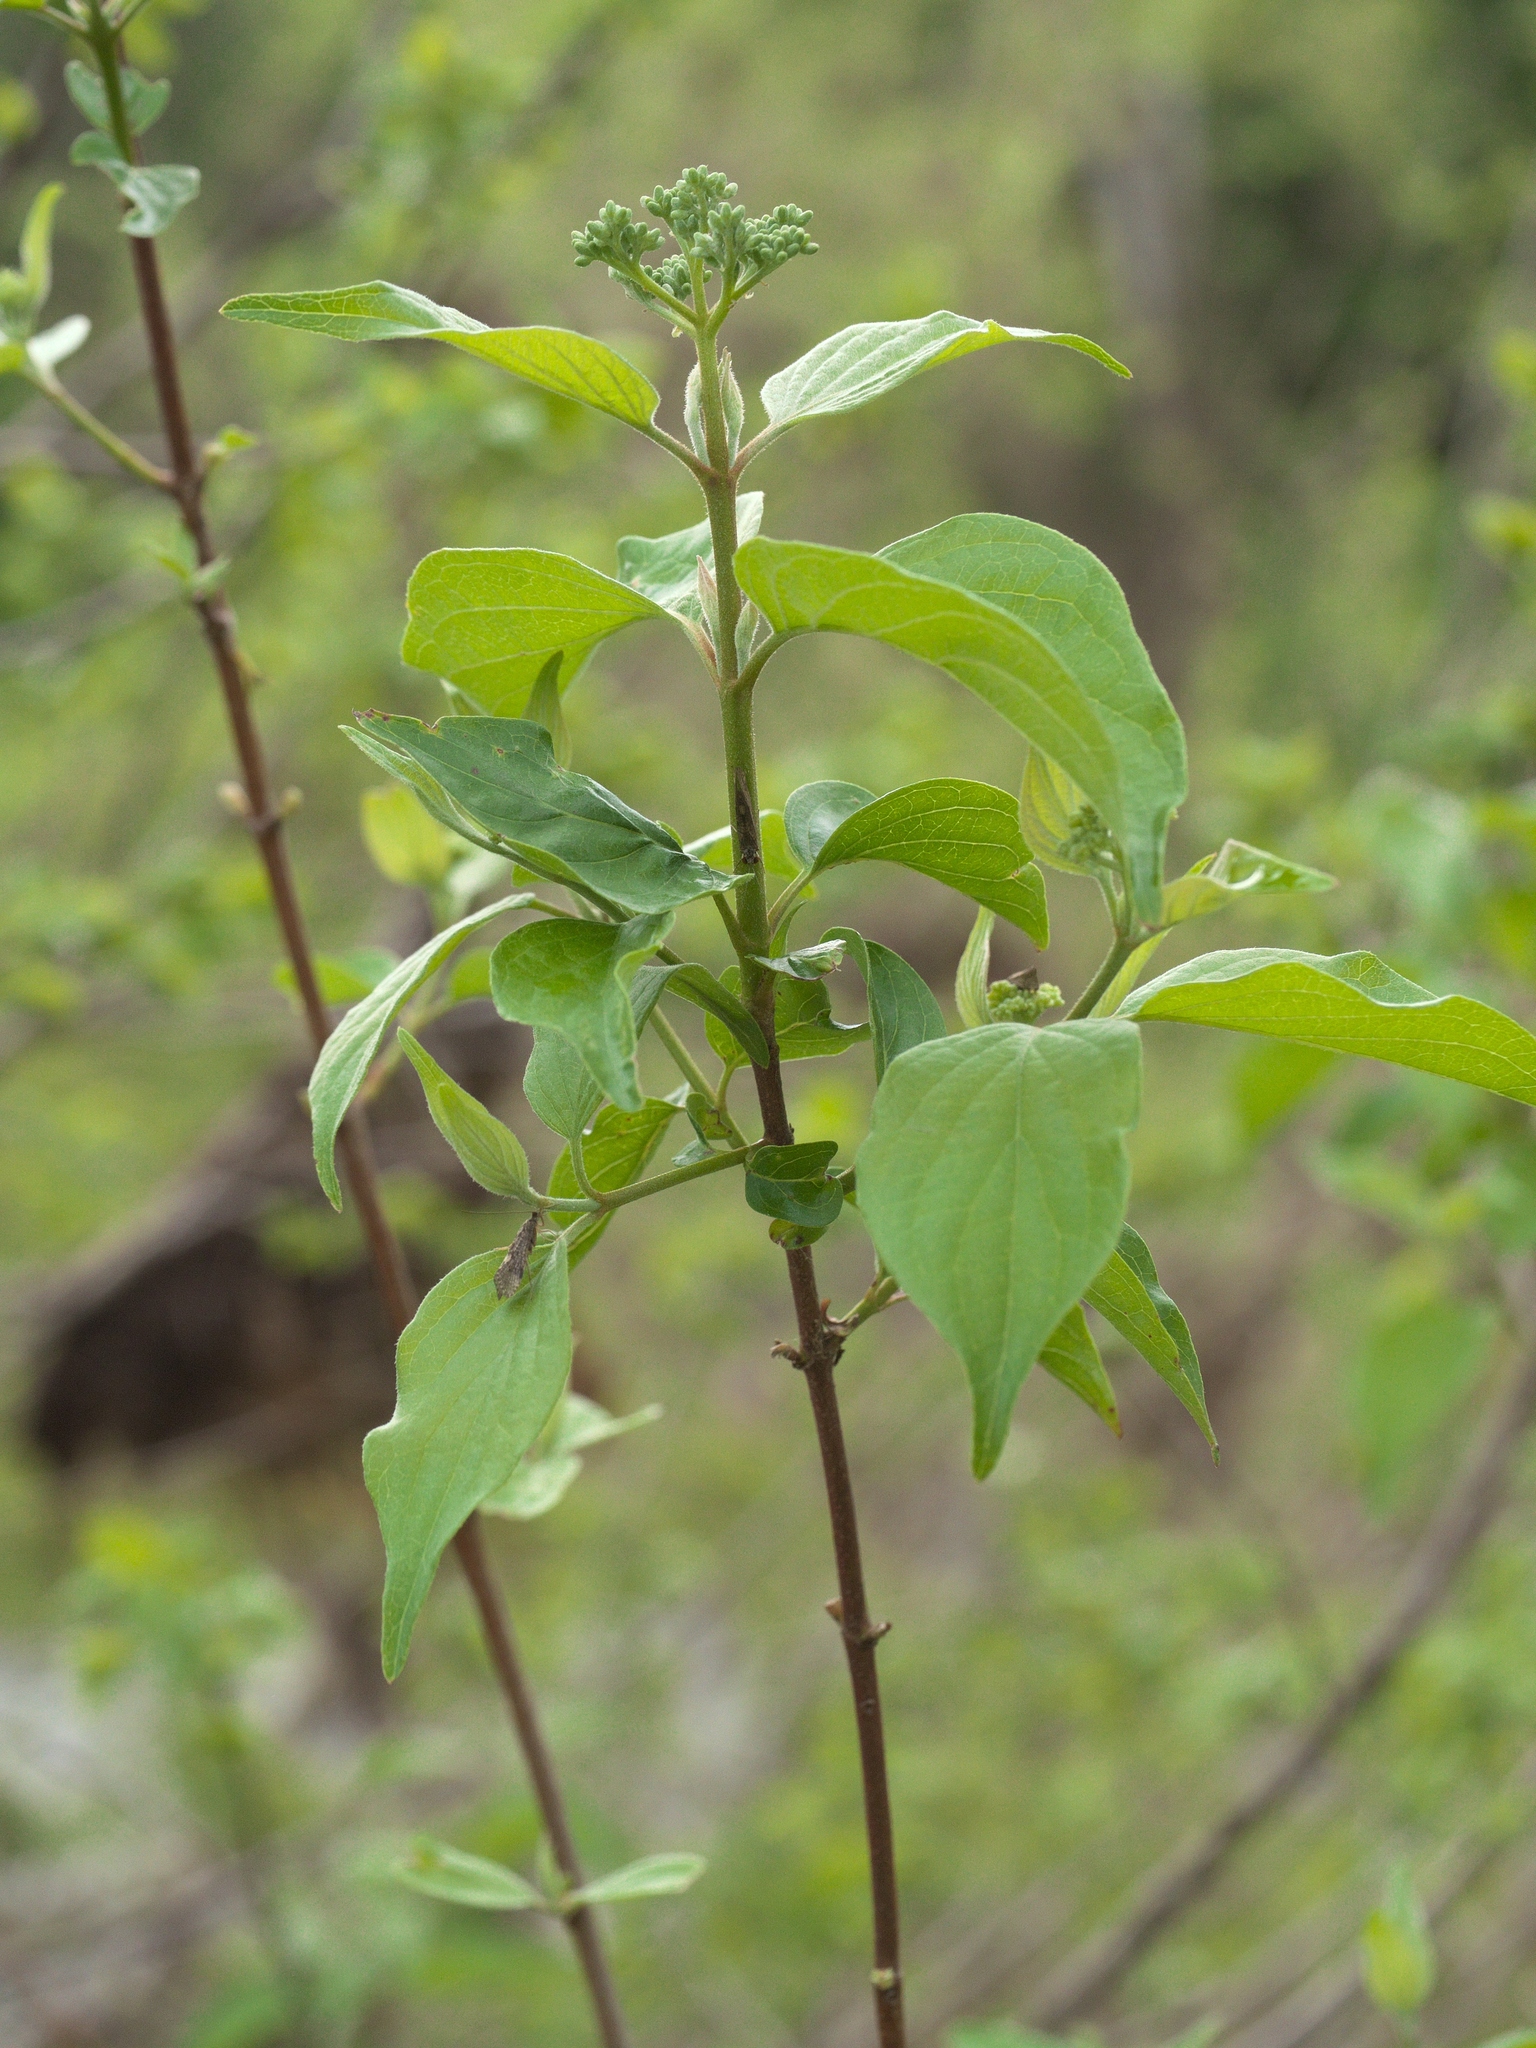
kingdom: Plantae
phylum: Tracheophyta
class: Magnoliopsida
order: Cornales
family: Cornaceae
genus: Cornus
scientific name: Cornus drummondii
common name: Rough-leaf dogwood
